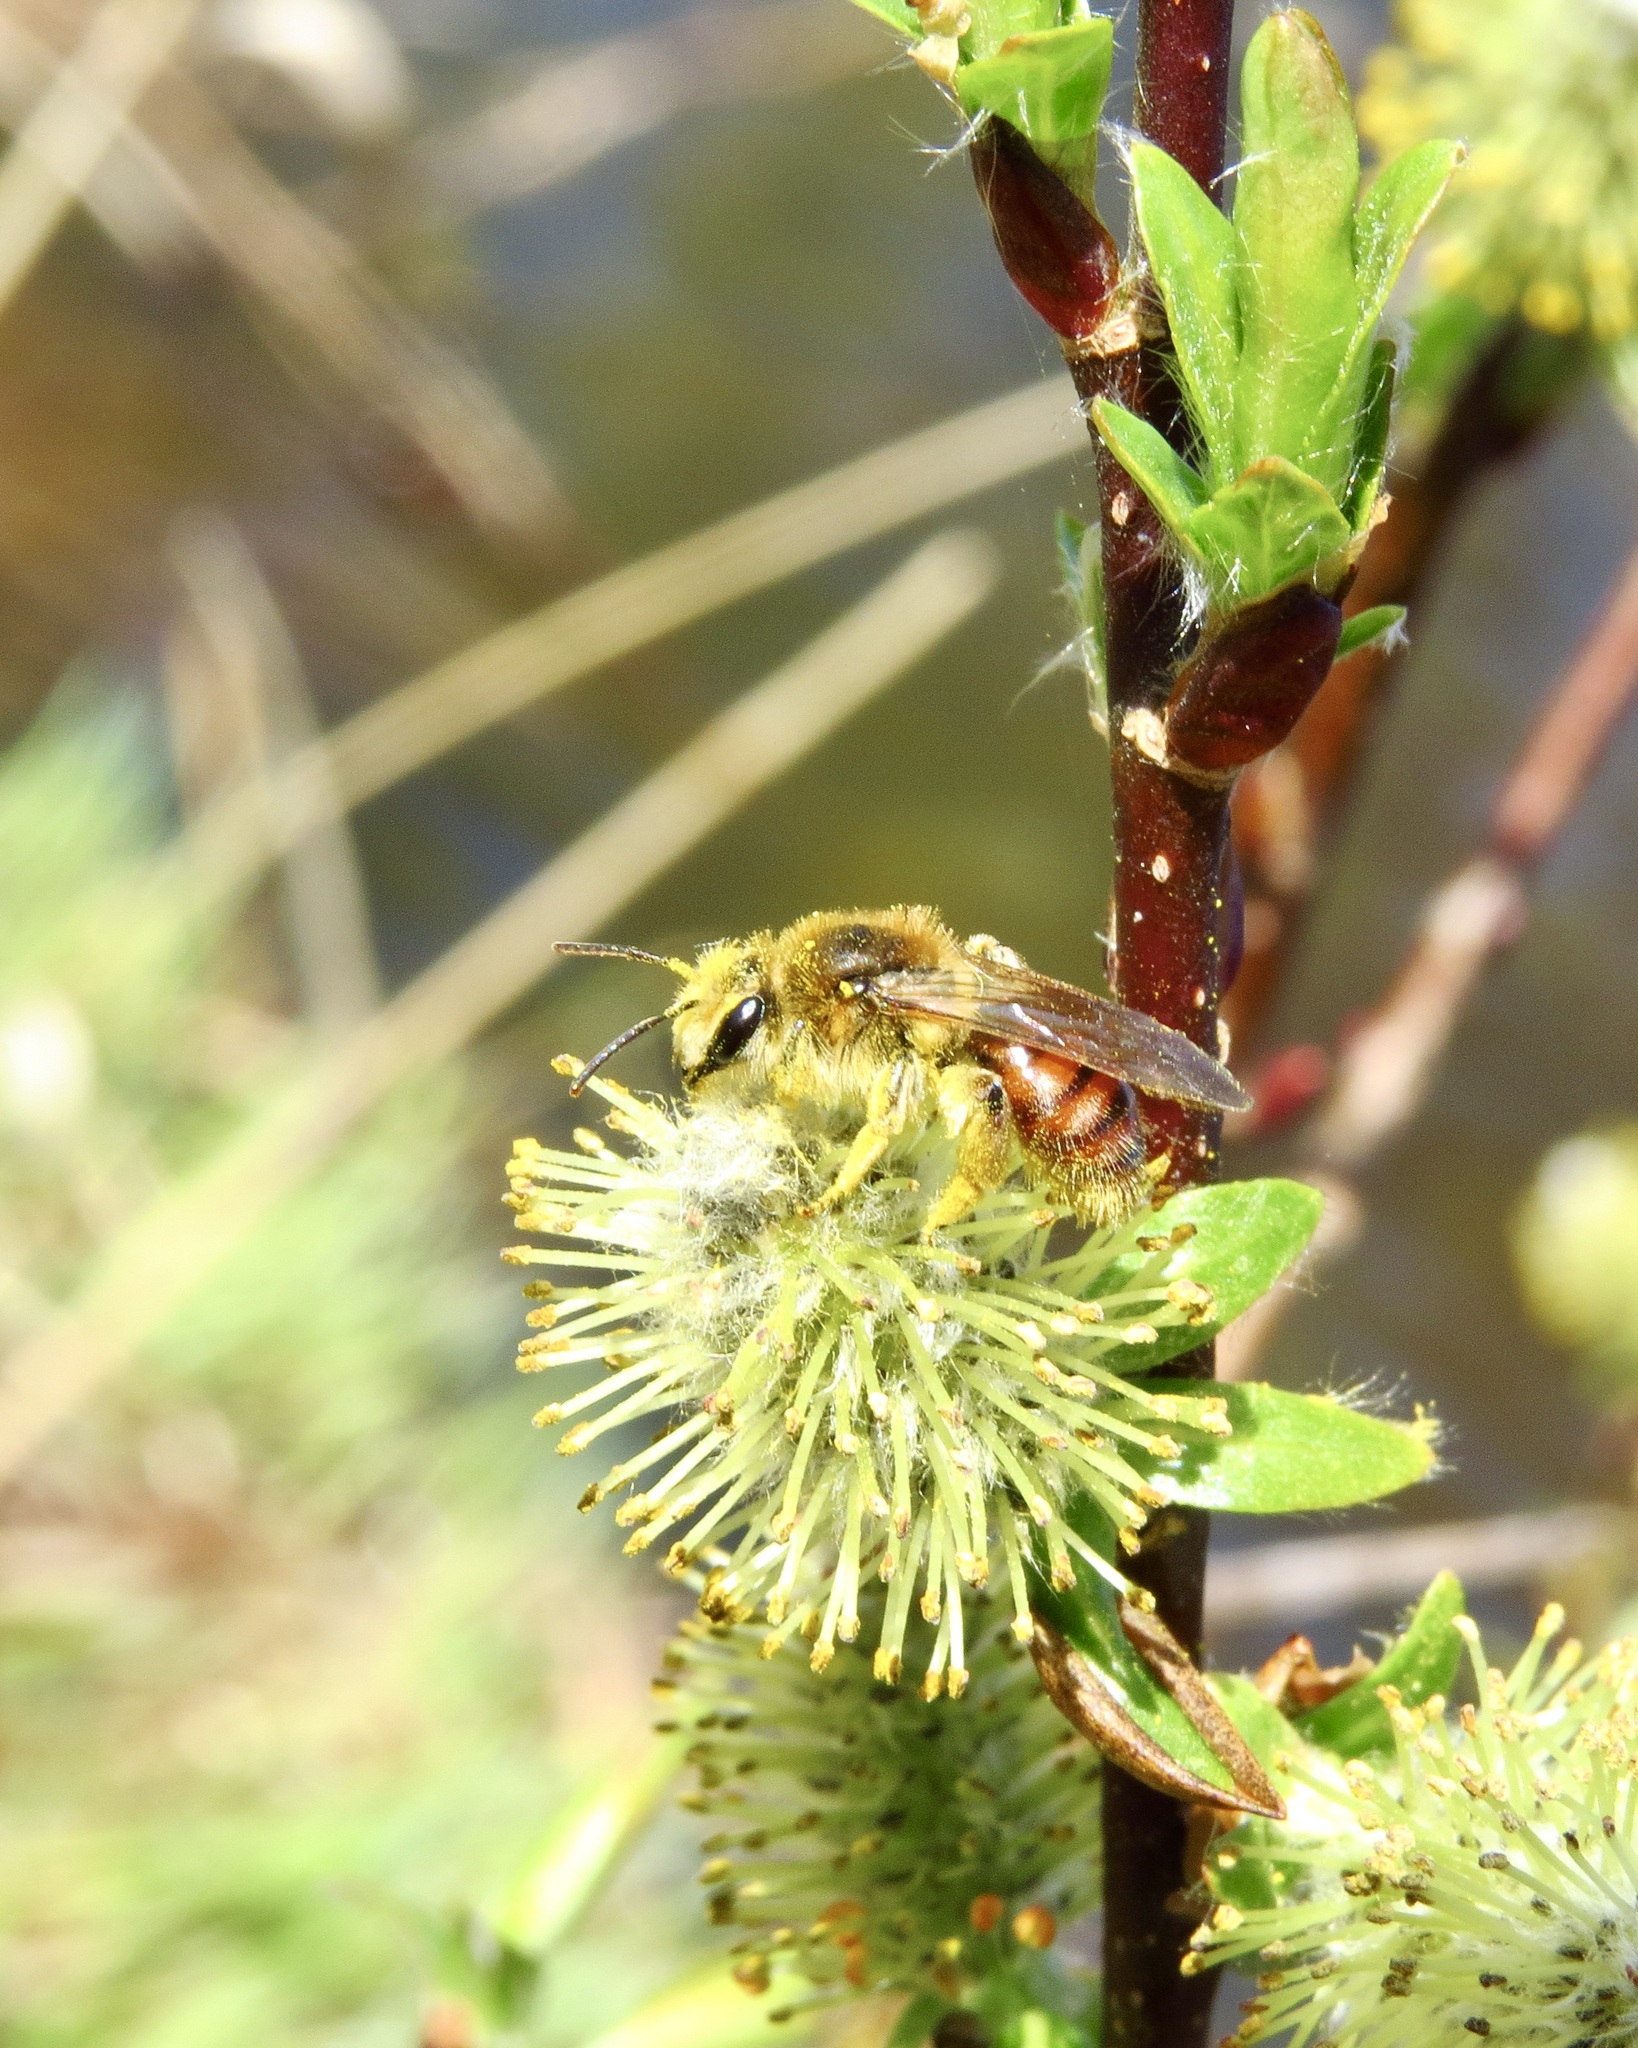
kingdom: Animalia
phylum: Arthropoda
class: Insecta
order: Hymenoptera
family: Andrenidae
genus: Andrena
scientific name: Andrena erythrogaster
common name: Red-tailed mining bee
